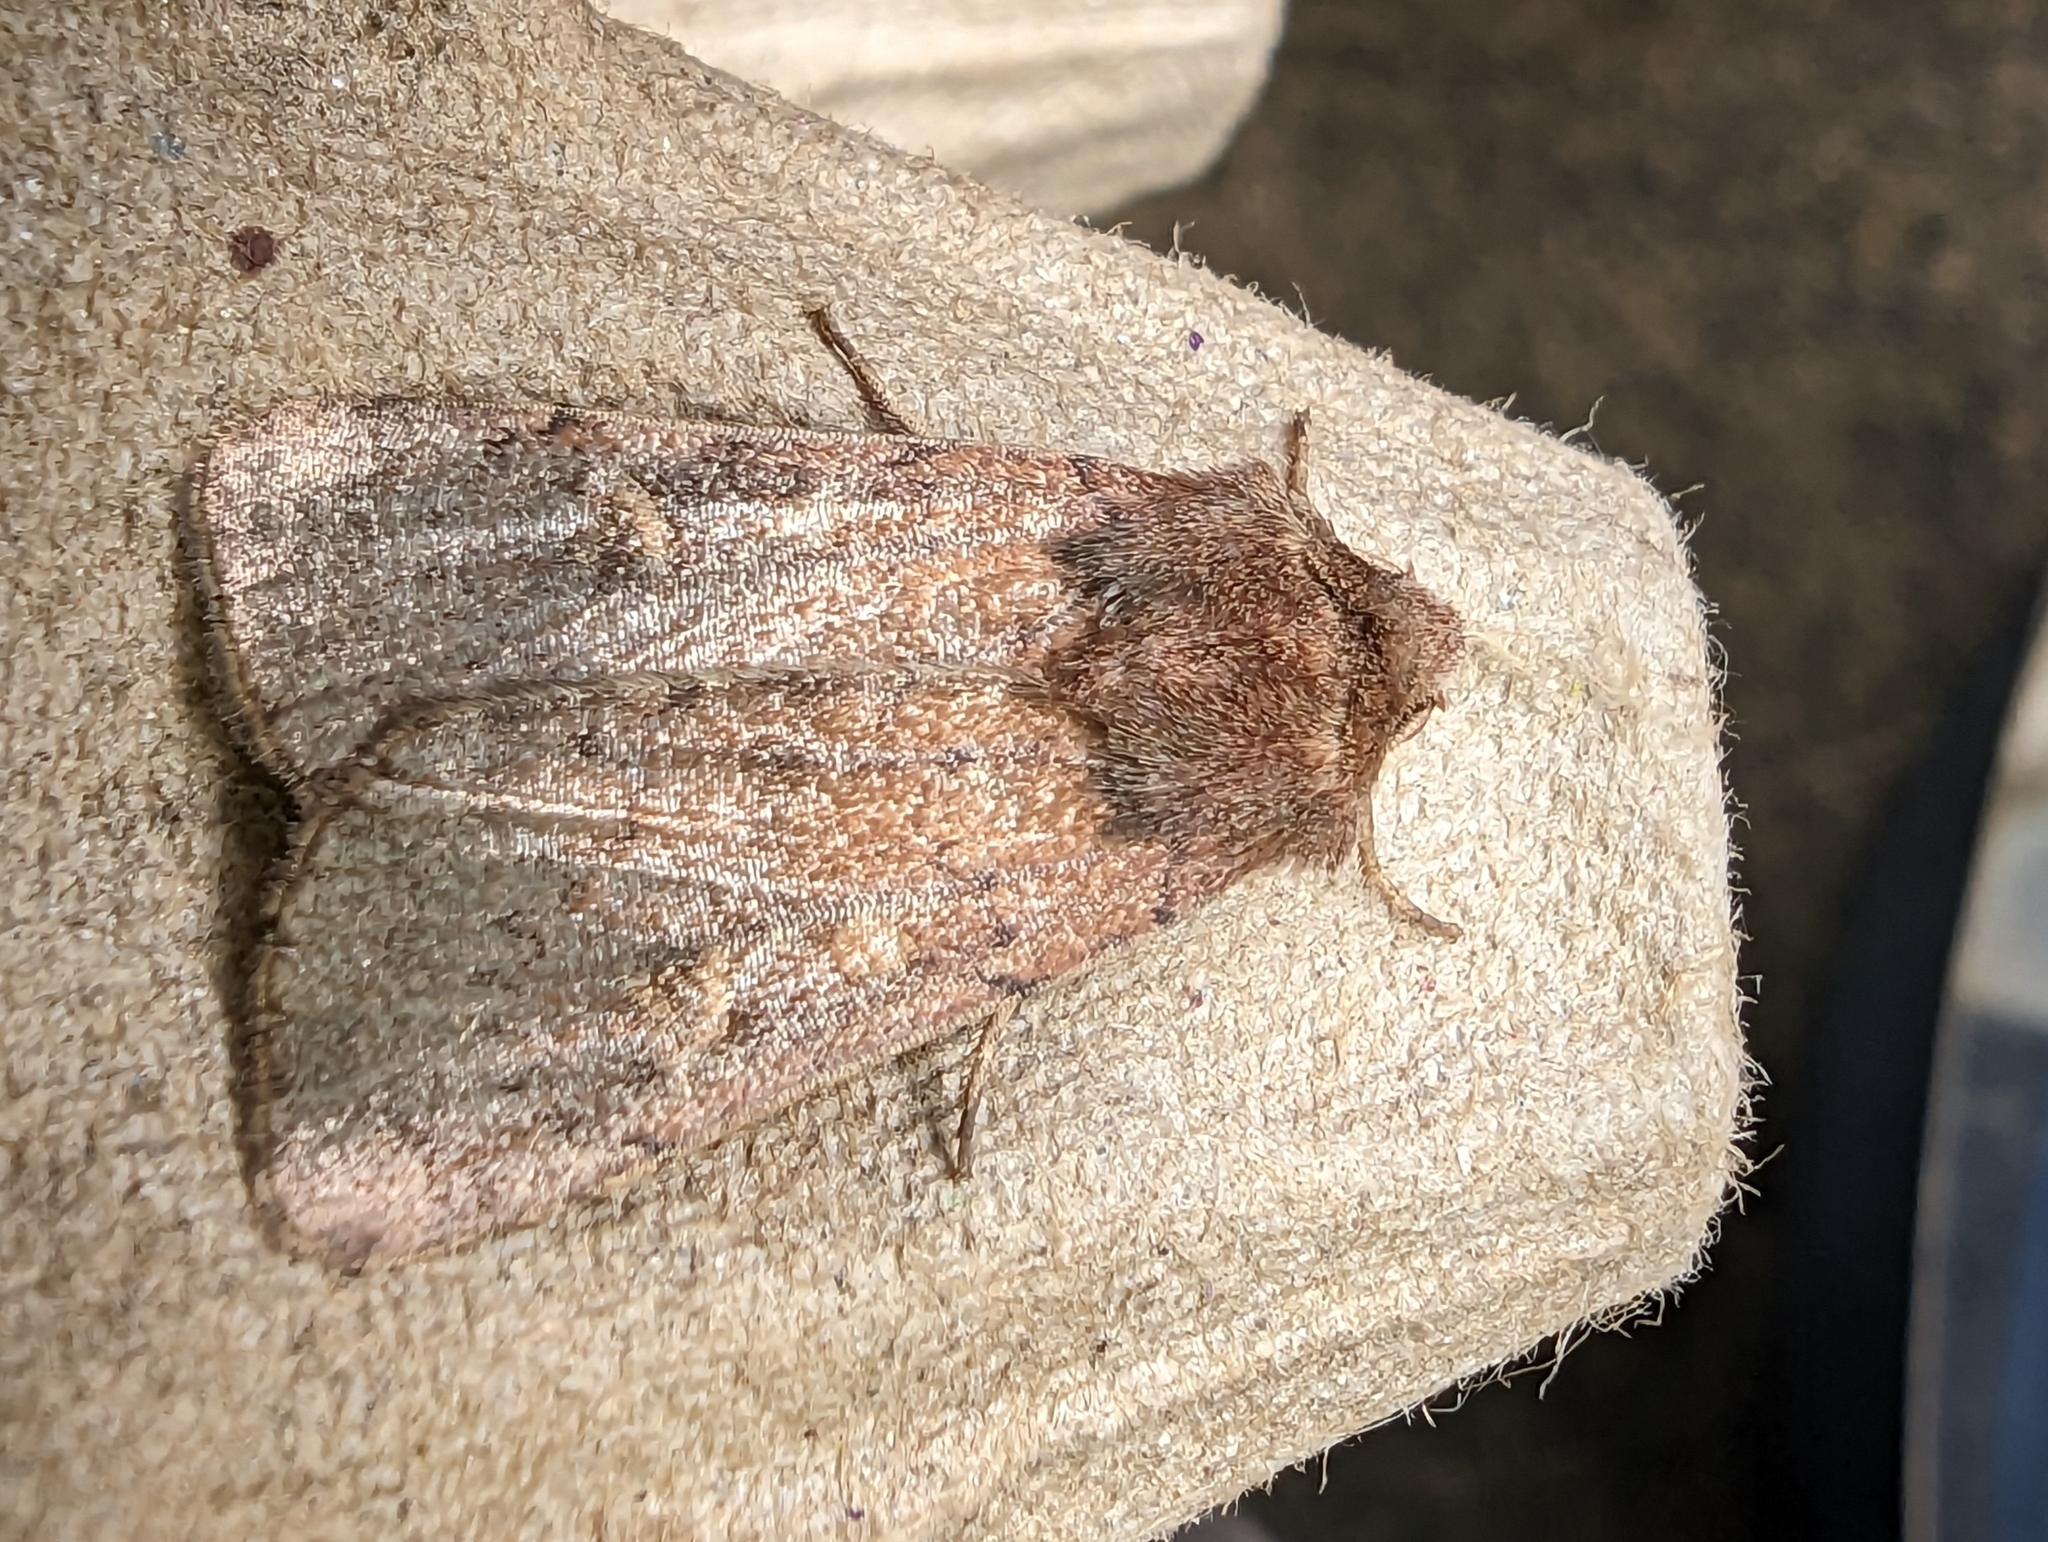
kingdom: Animalia
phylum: Arthropoda
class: Insecta
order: Lepidoptera
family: Noctuidae
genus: Xestia
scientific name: Xestia xanthographa
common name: Square-spot rustic
